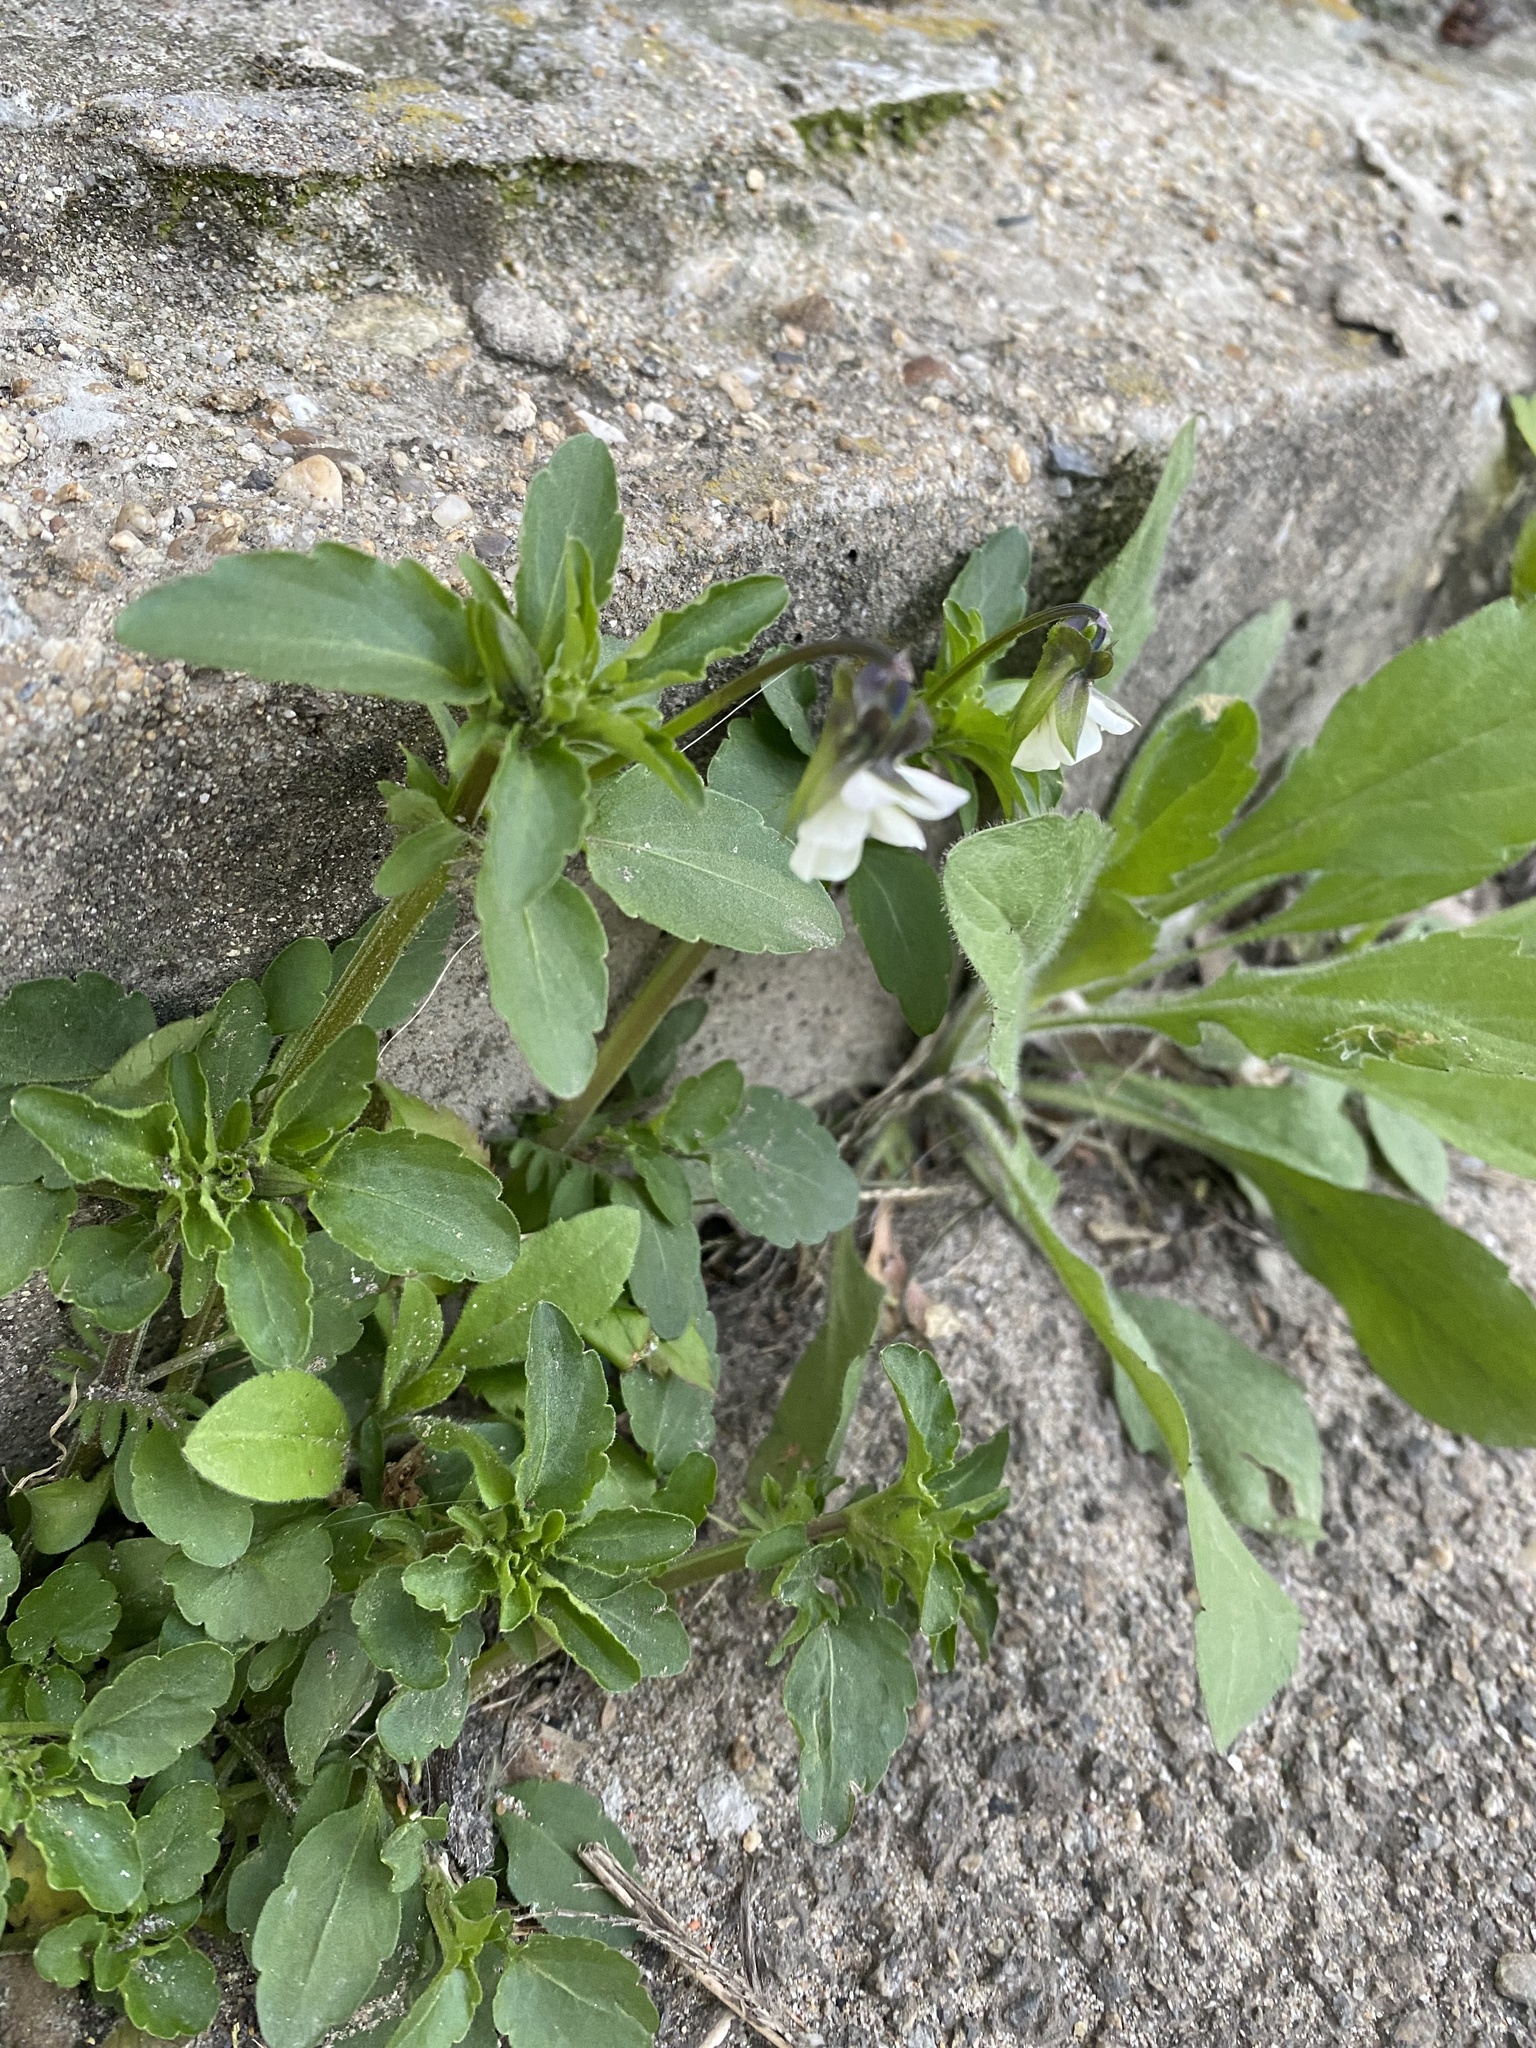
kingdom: Plantae
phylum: Tracheophyta
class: Magnoliopsida
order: Malpighiales
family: Violaceae
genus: Viola
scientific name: Viola arvensis
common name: Field pansy
